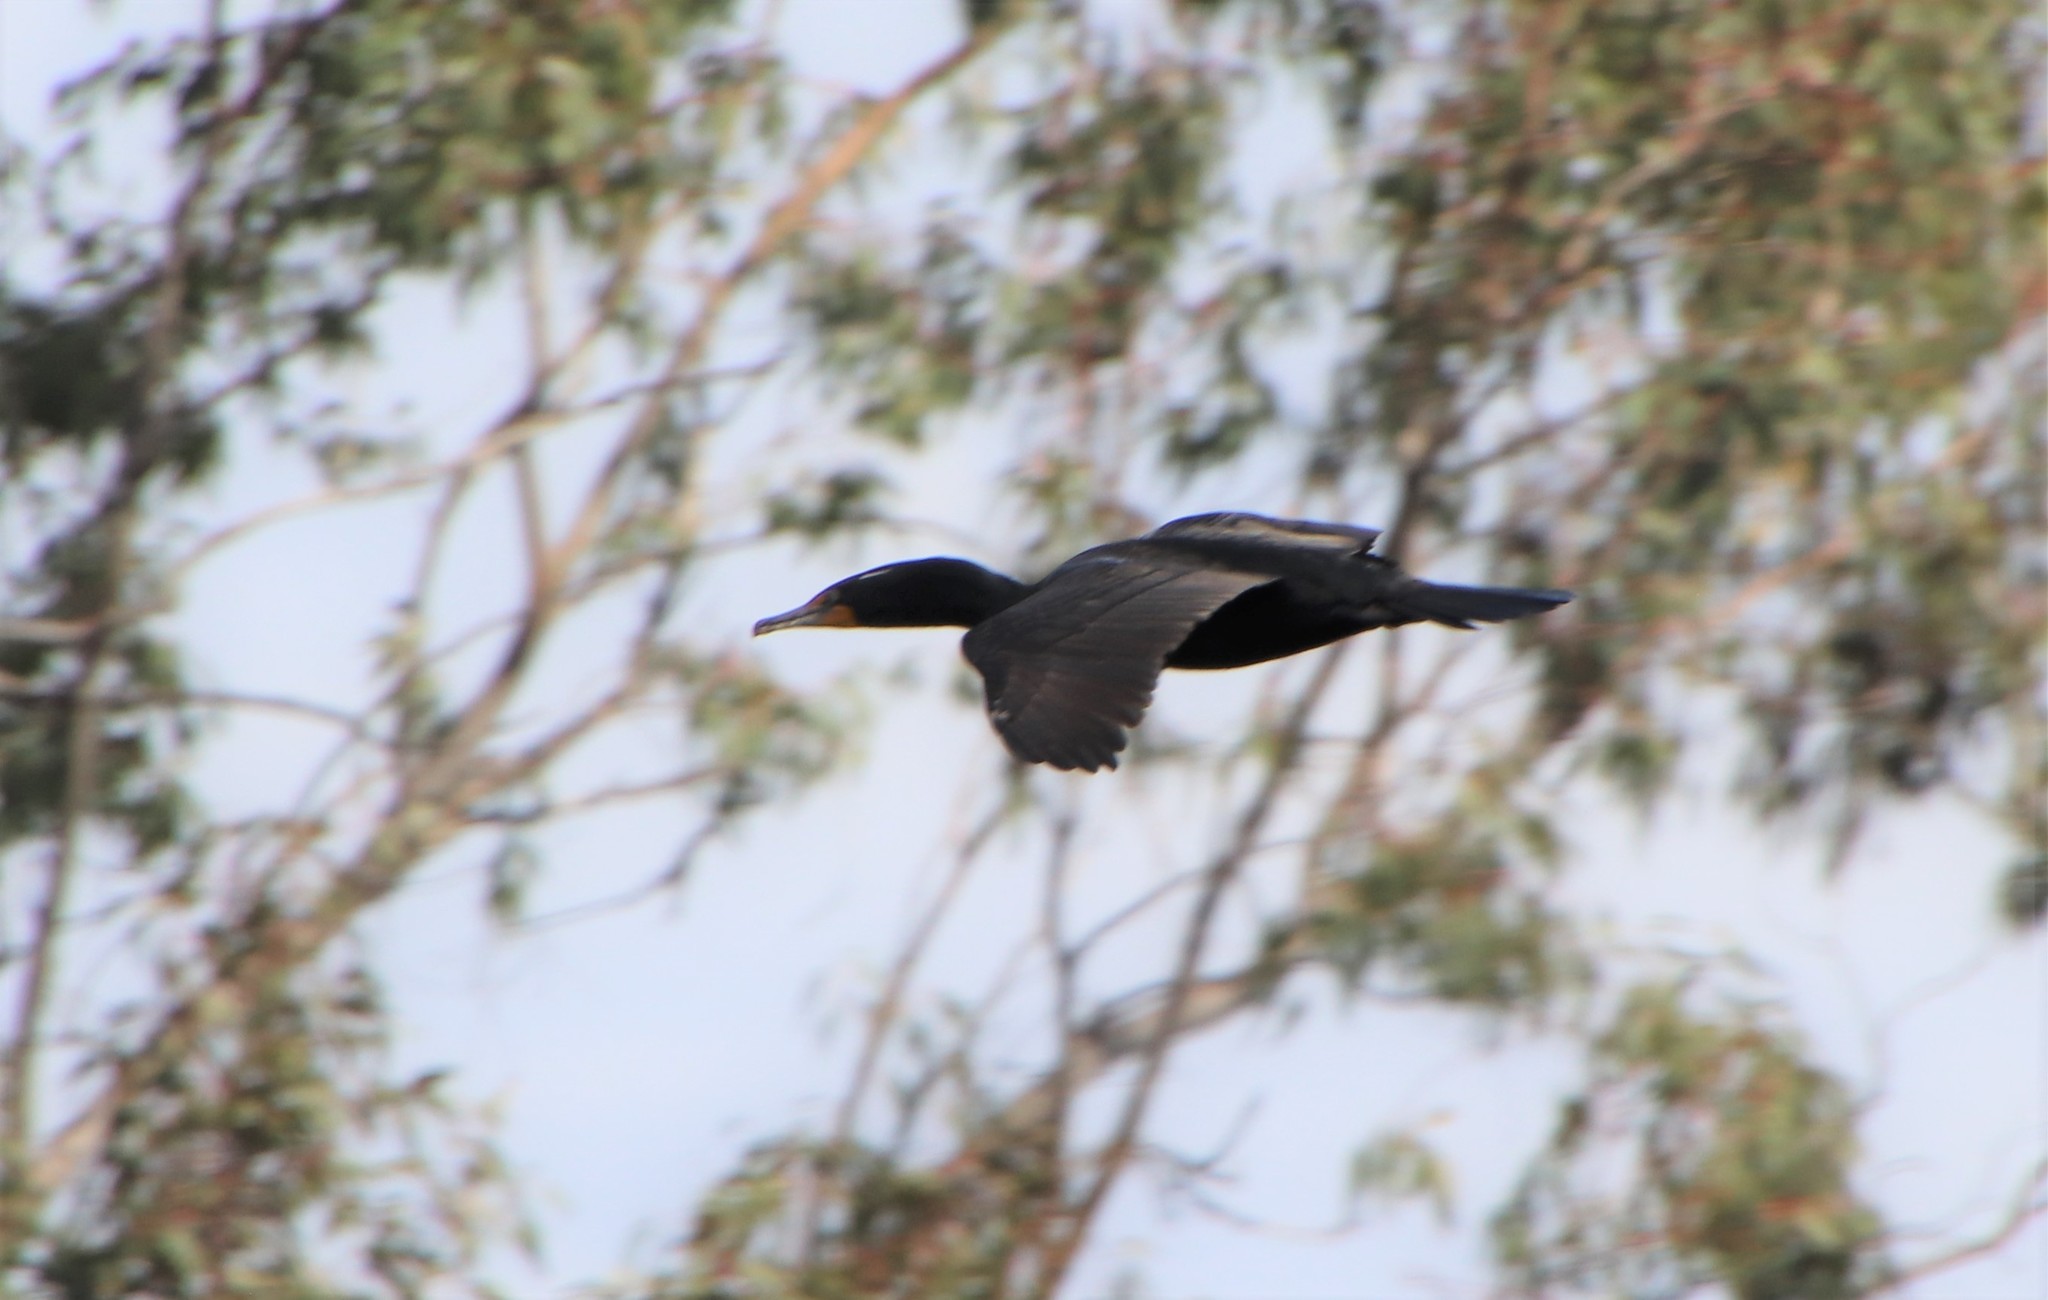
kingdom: Animalia
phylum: Chordata
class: Aves
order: Suliformes
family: Phalacrocoracidae
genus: Phalacrocorax
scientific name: Phalacrocorax auritus
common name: Double-crested cormorant
